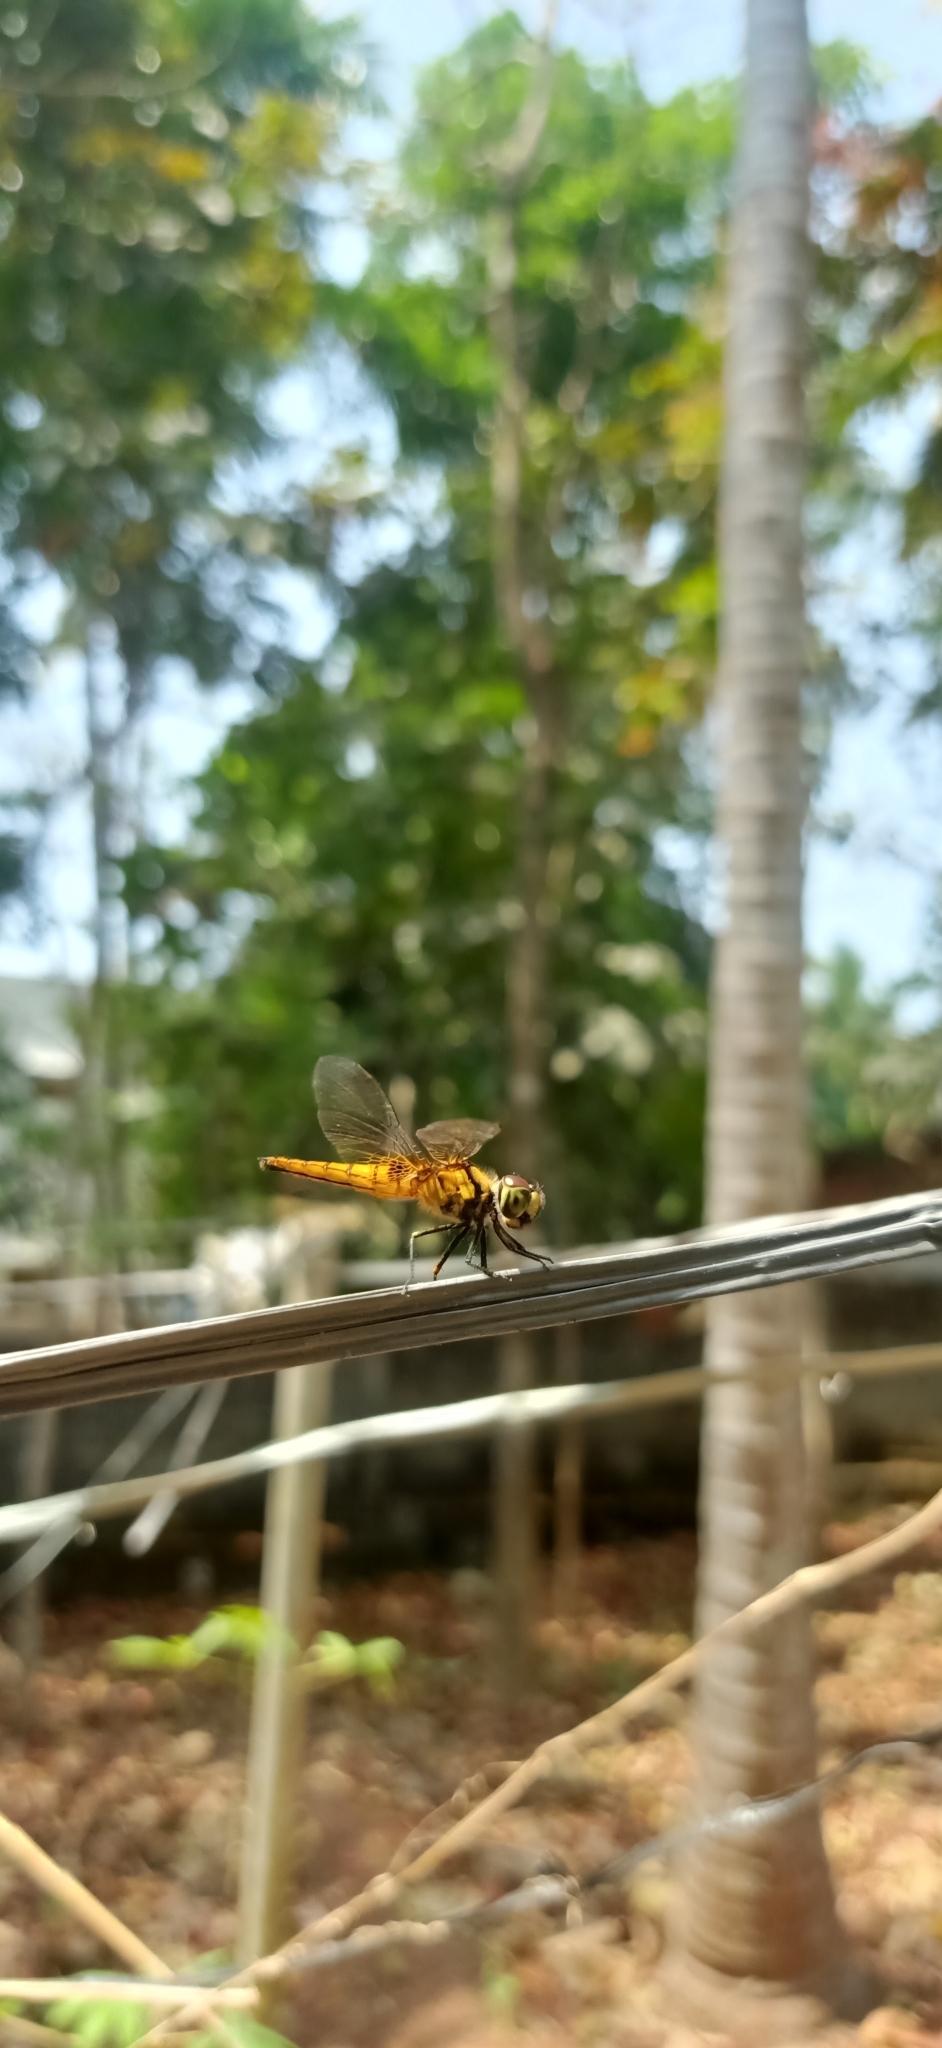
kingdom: Animalia
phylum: Arthropoda
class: Insecta
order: Odonata
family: Libellulidae
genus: Aethriamanta
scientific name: Aethriamanta brevipennis
